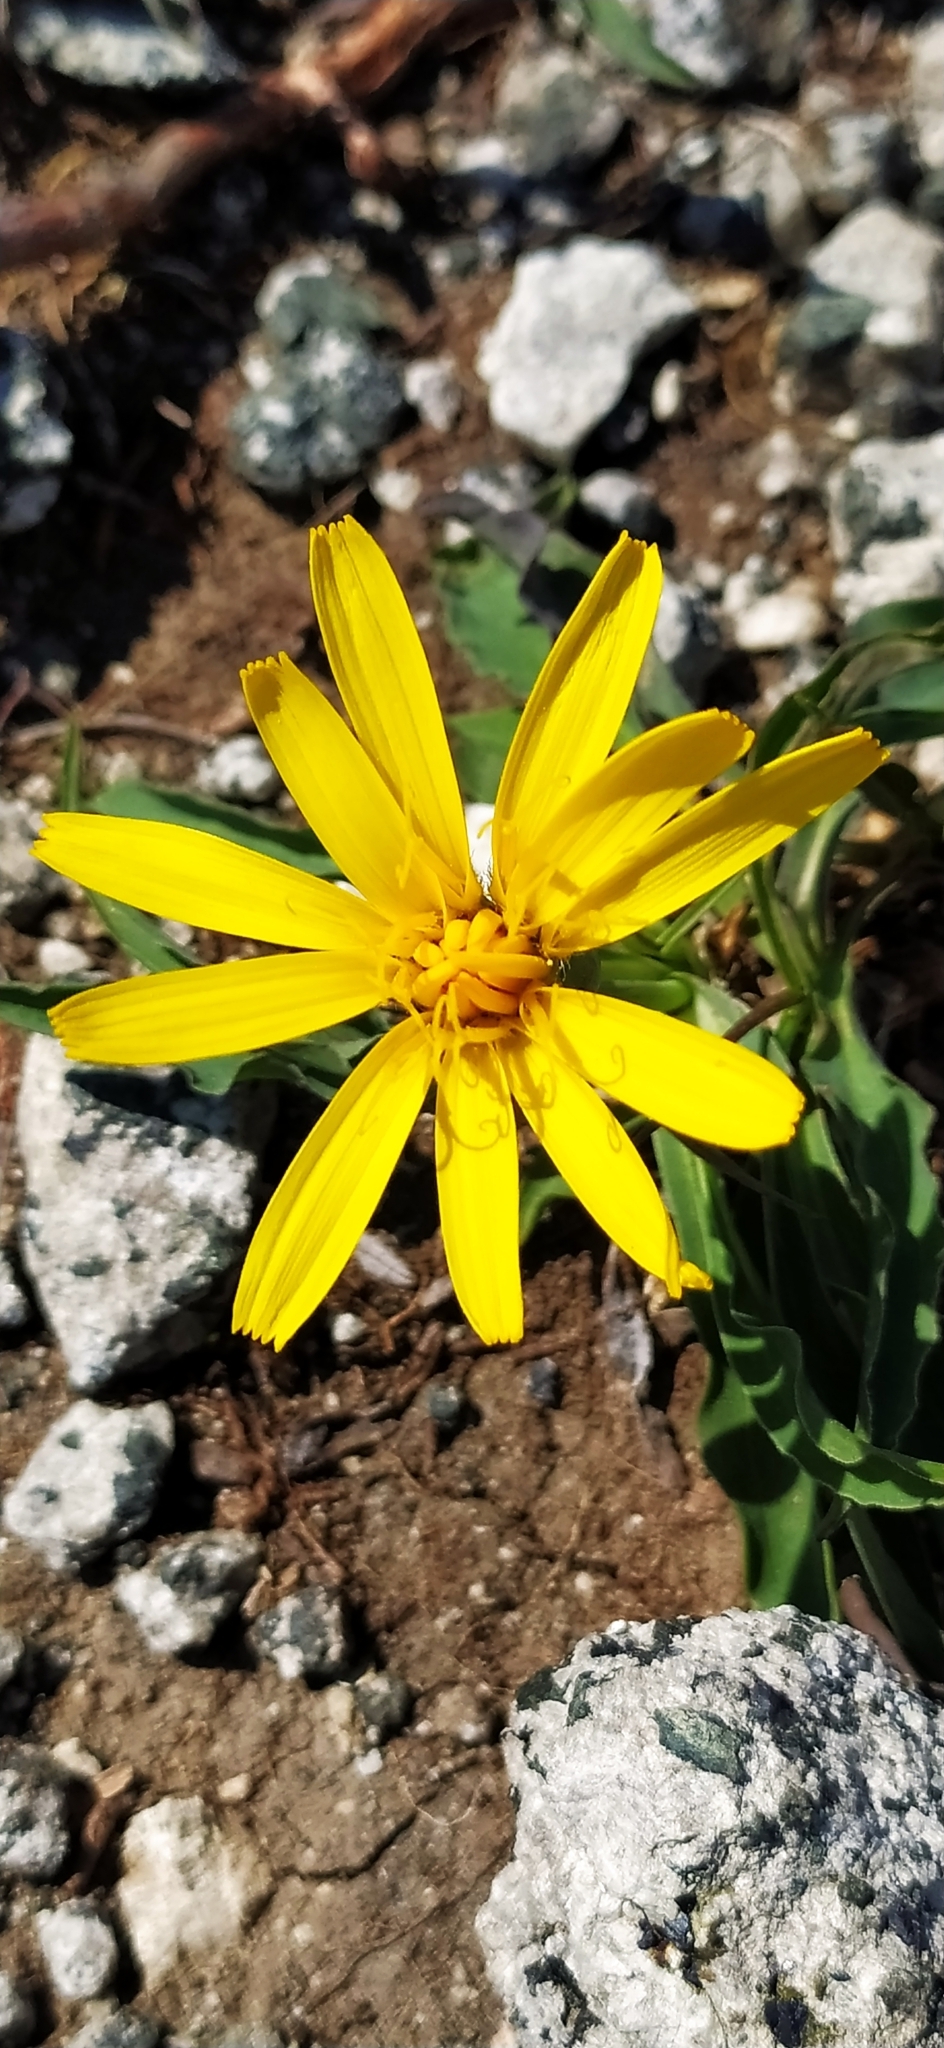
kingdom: Plantae
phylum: Tracheophyta
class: Magnoliopsida
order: Asterales
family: Asteraceae
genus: Scorzonera
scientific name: Scorzonera glabra
